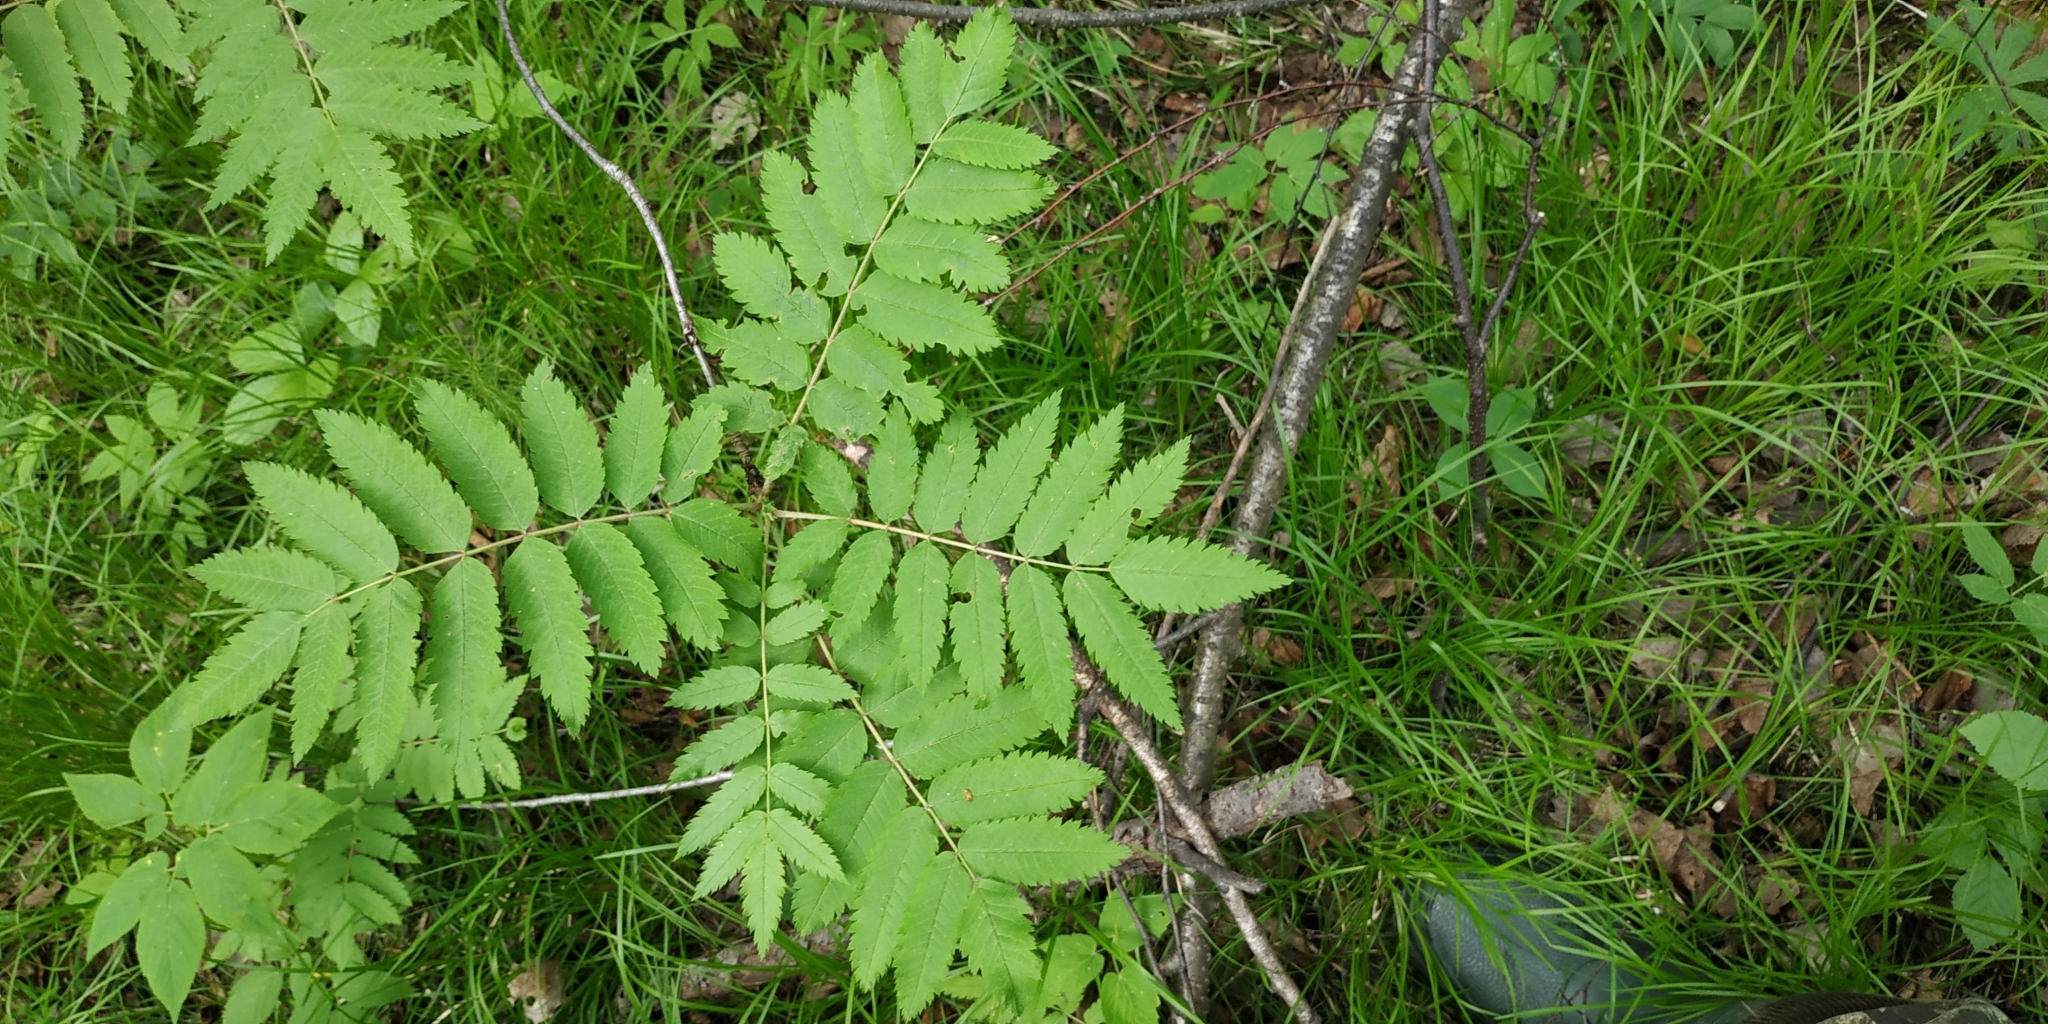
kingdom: Plantae
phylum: Tracheophyta
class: Magnoliopsida
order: Rosales
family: Rosaceae
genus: Sorbus
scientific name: Sorbus aucuparia
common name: Rowan
